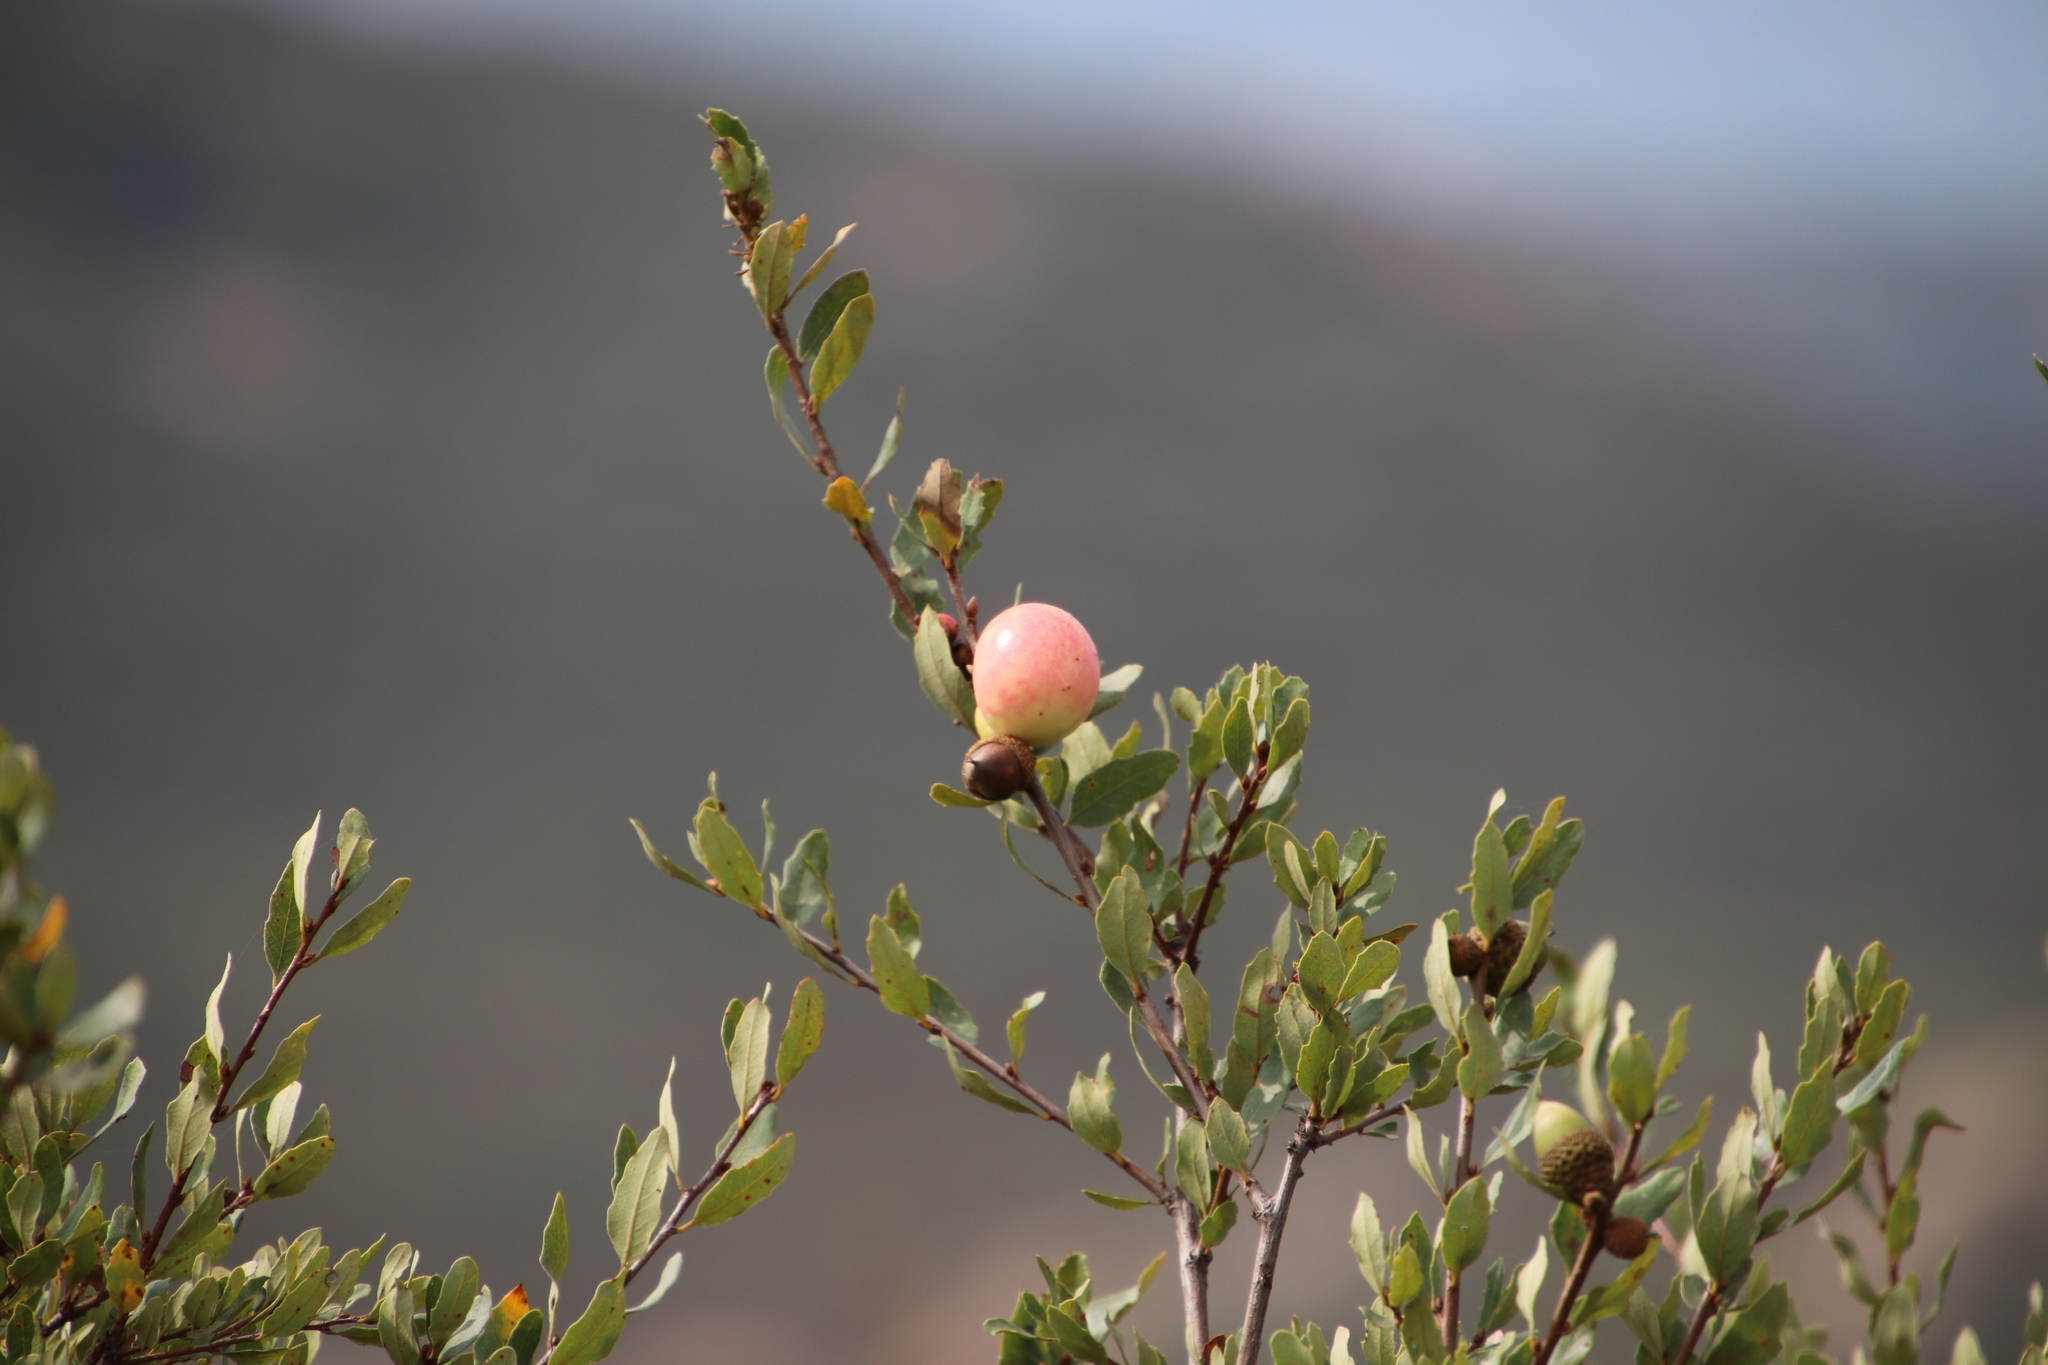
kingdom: Animalia
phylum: Arthropoda
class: Insecta
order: Hymenoptera
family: Cynipidae
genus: Andricus
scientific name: Andricus quercuscalifornicus
